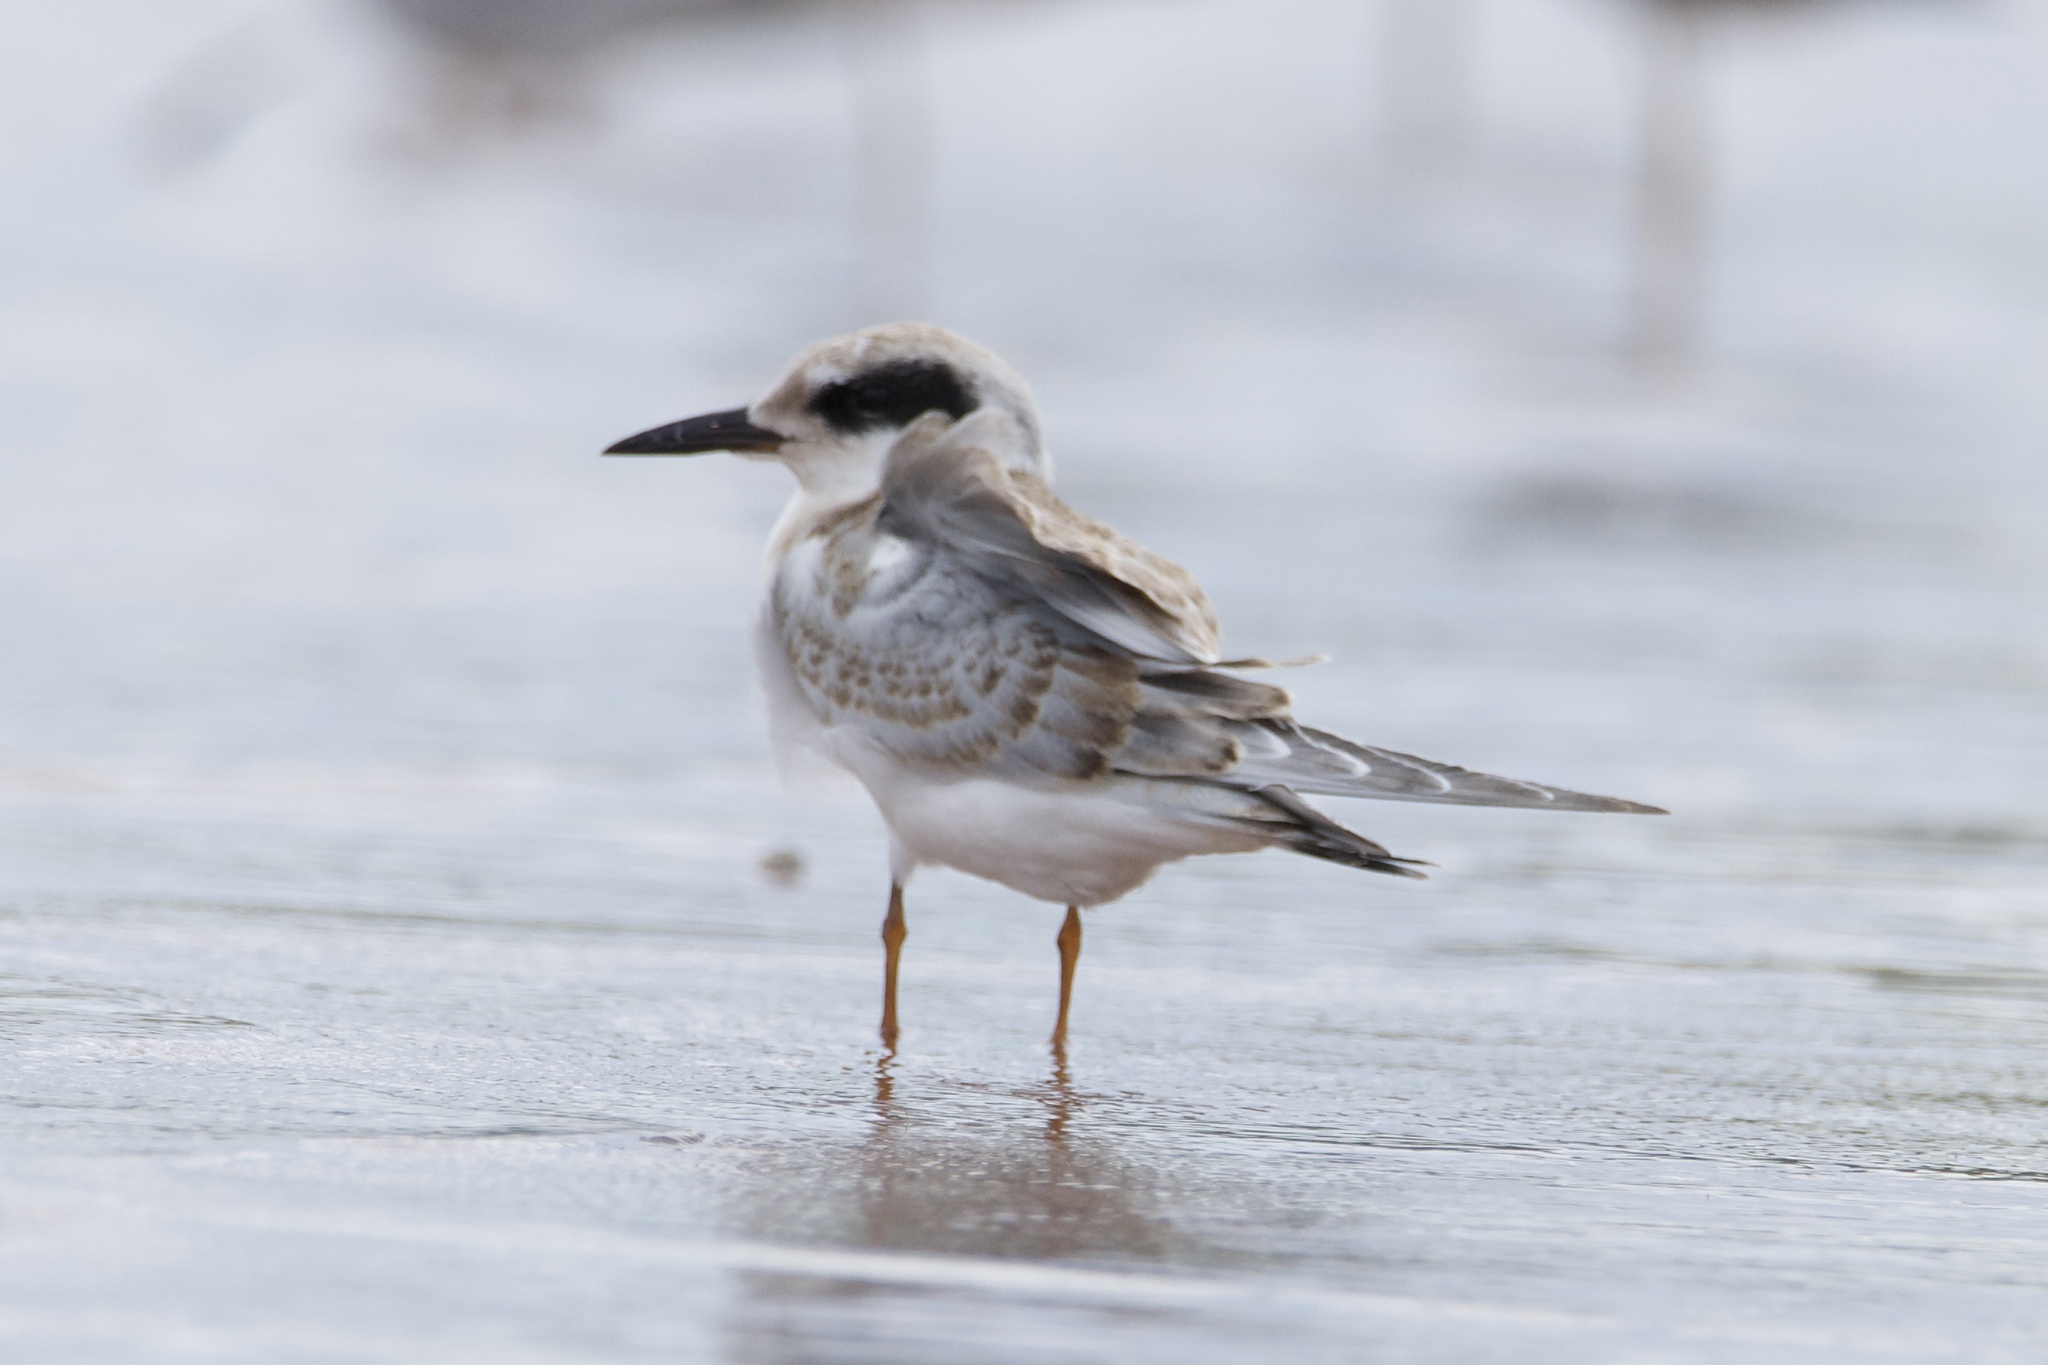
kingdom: Animalia
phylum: Chordata
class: Aves
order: Charadriiformes
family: Laridae
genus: Sterna
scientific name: Sterna forsteri
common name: Forster's tern
